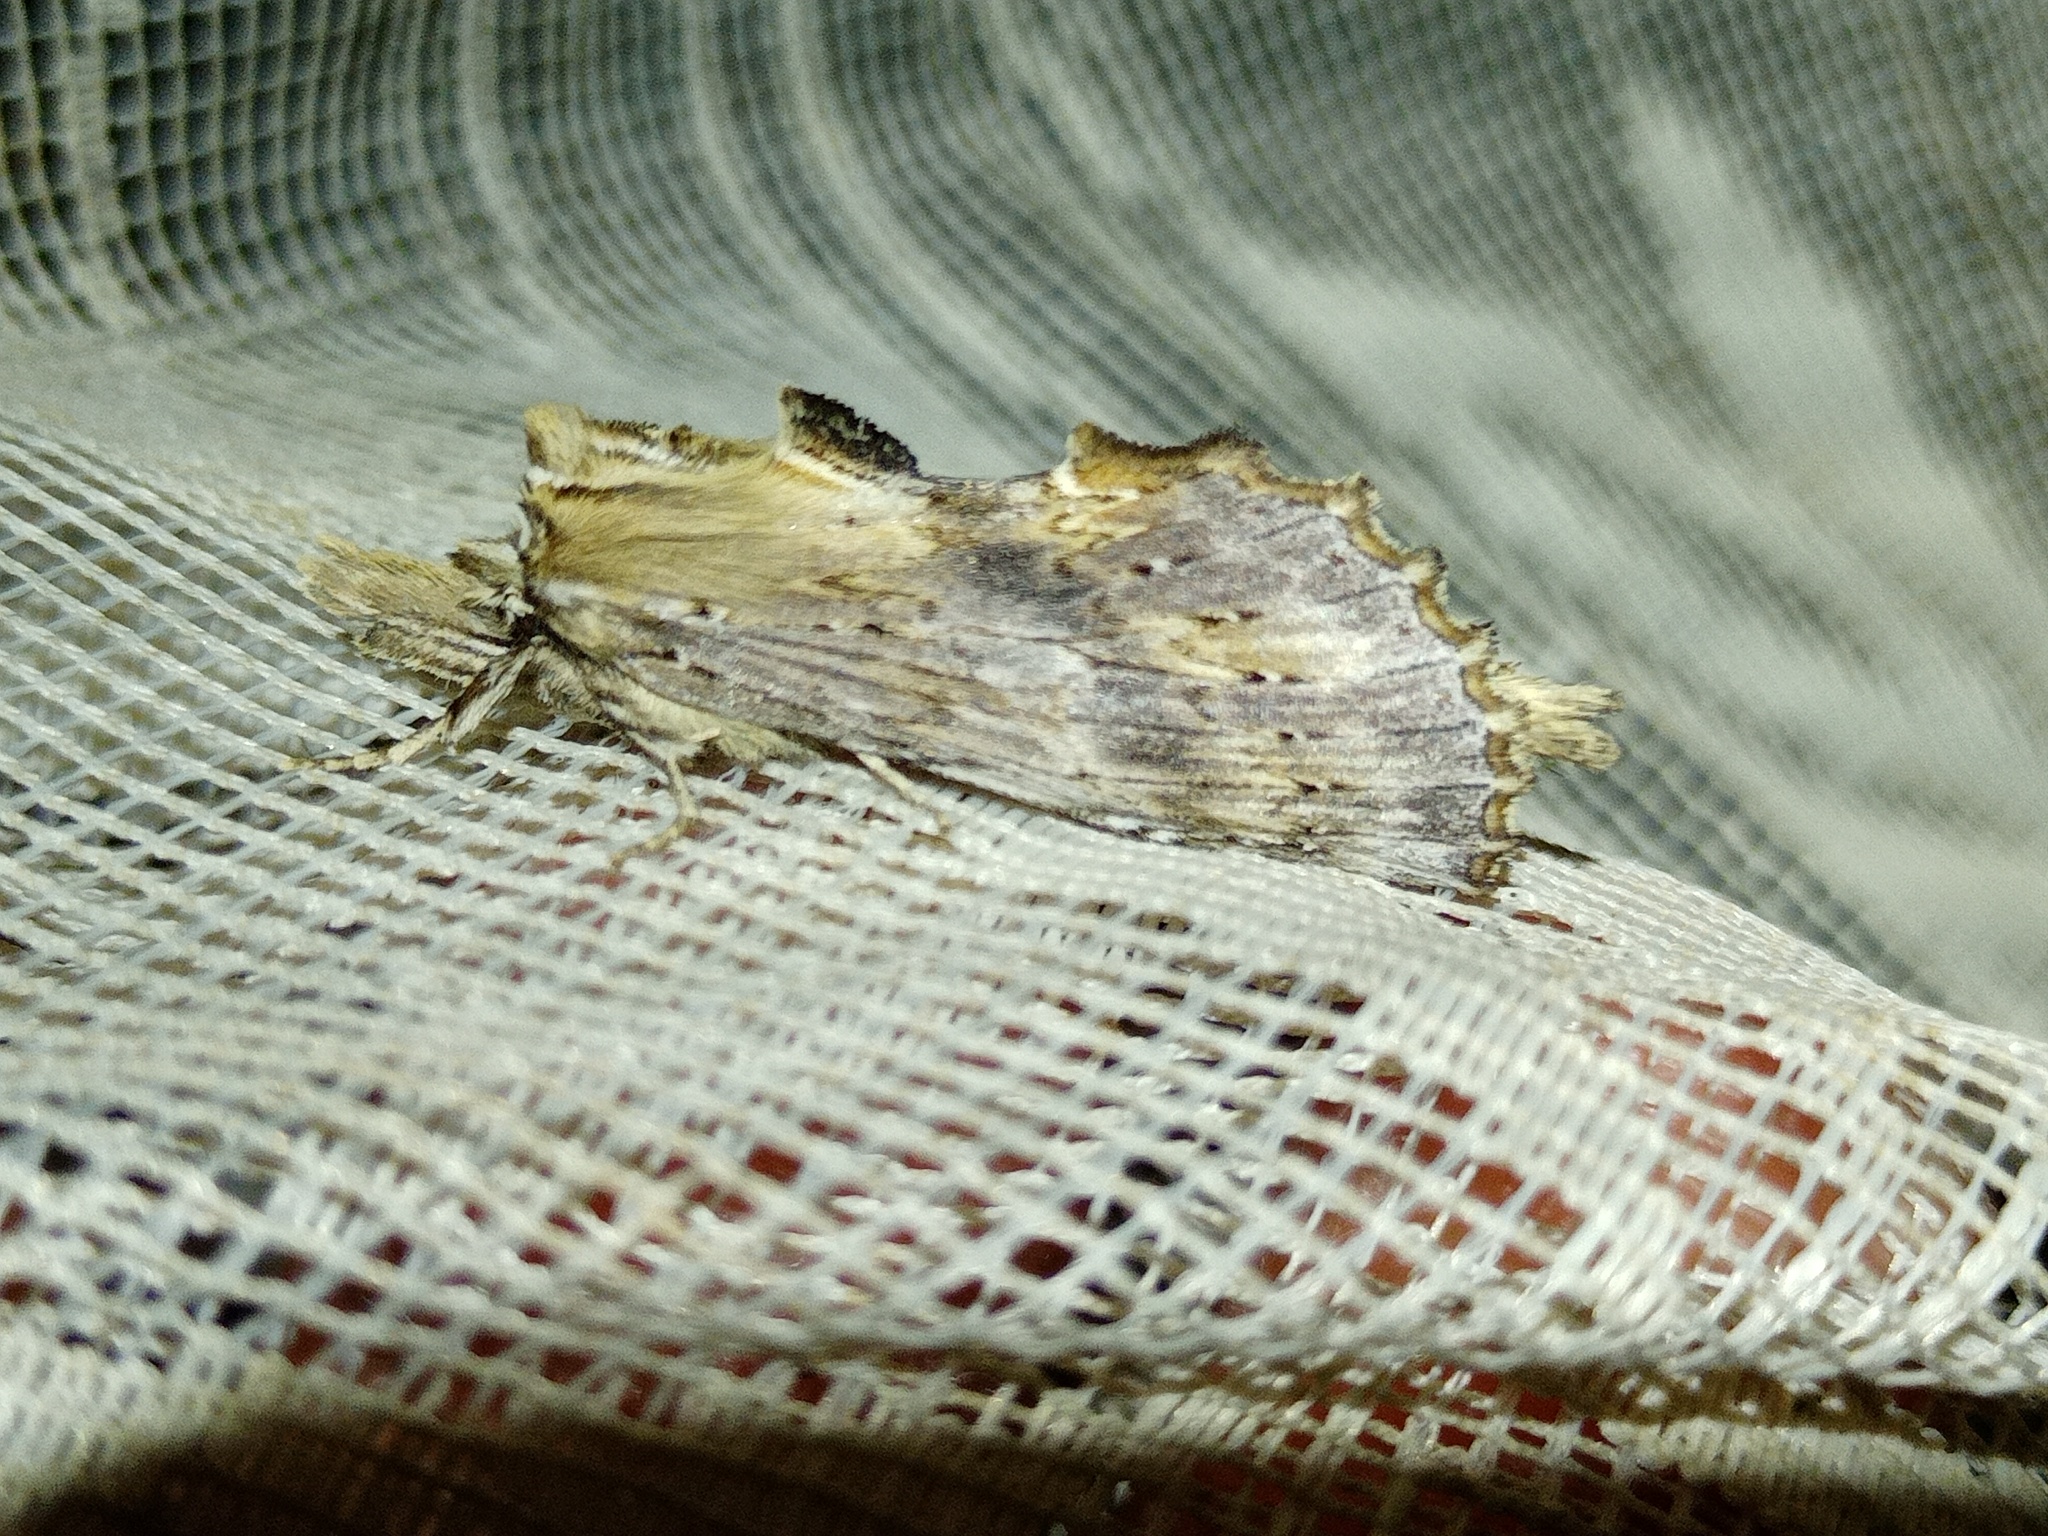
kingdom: Animalia
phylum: Arthropoda
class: Insecta
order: Lepidoptera
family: Notodontidae
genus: Pterostoma
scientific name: Pterostoma palpina
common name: Pale prominent
